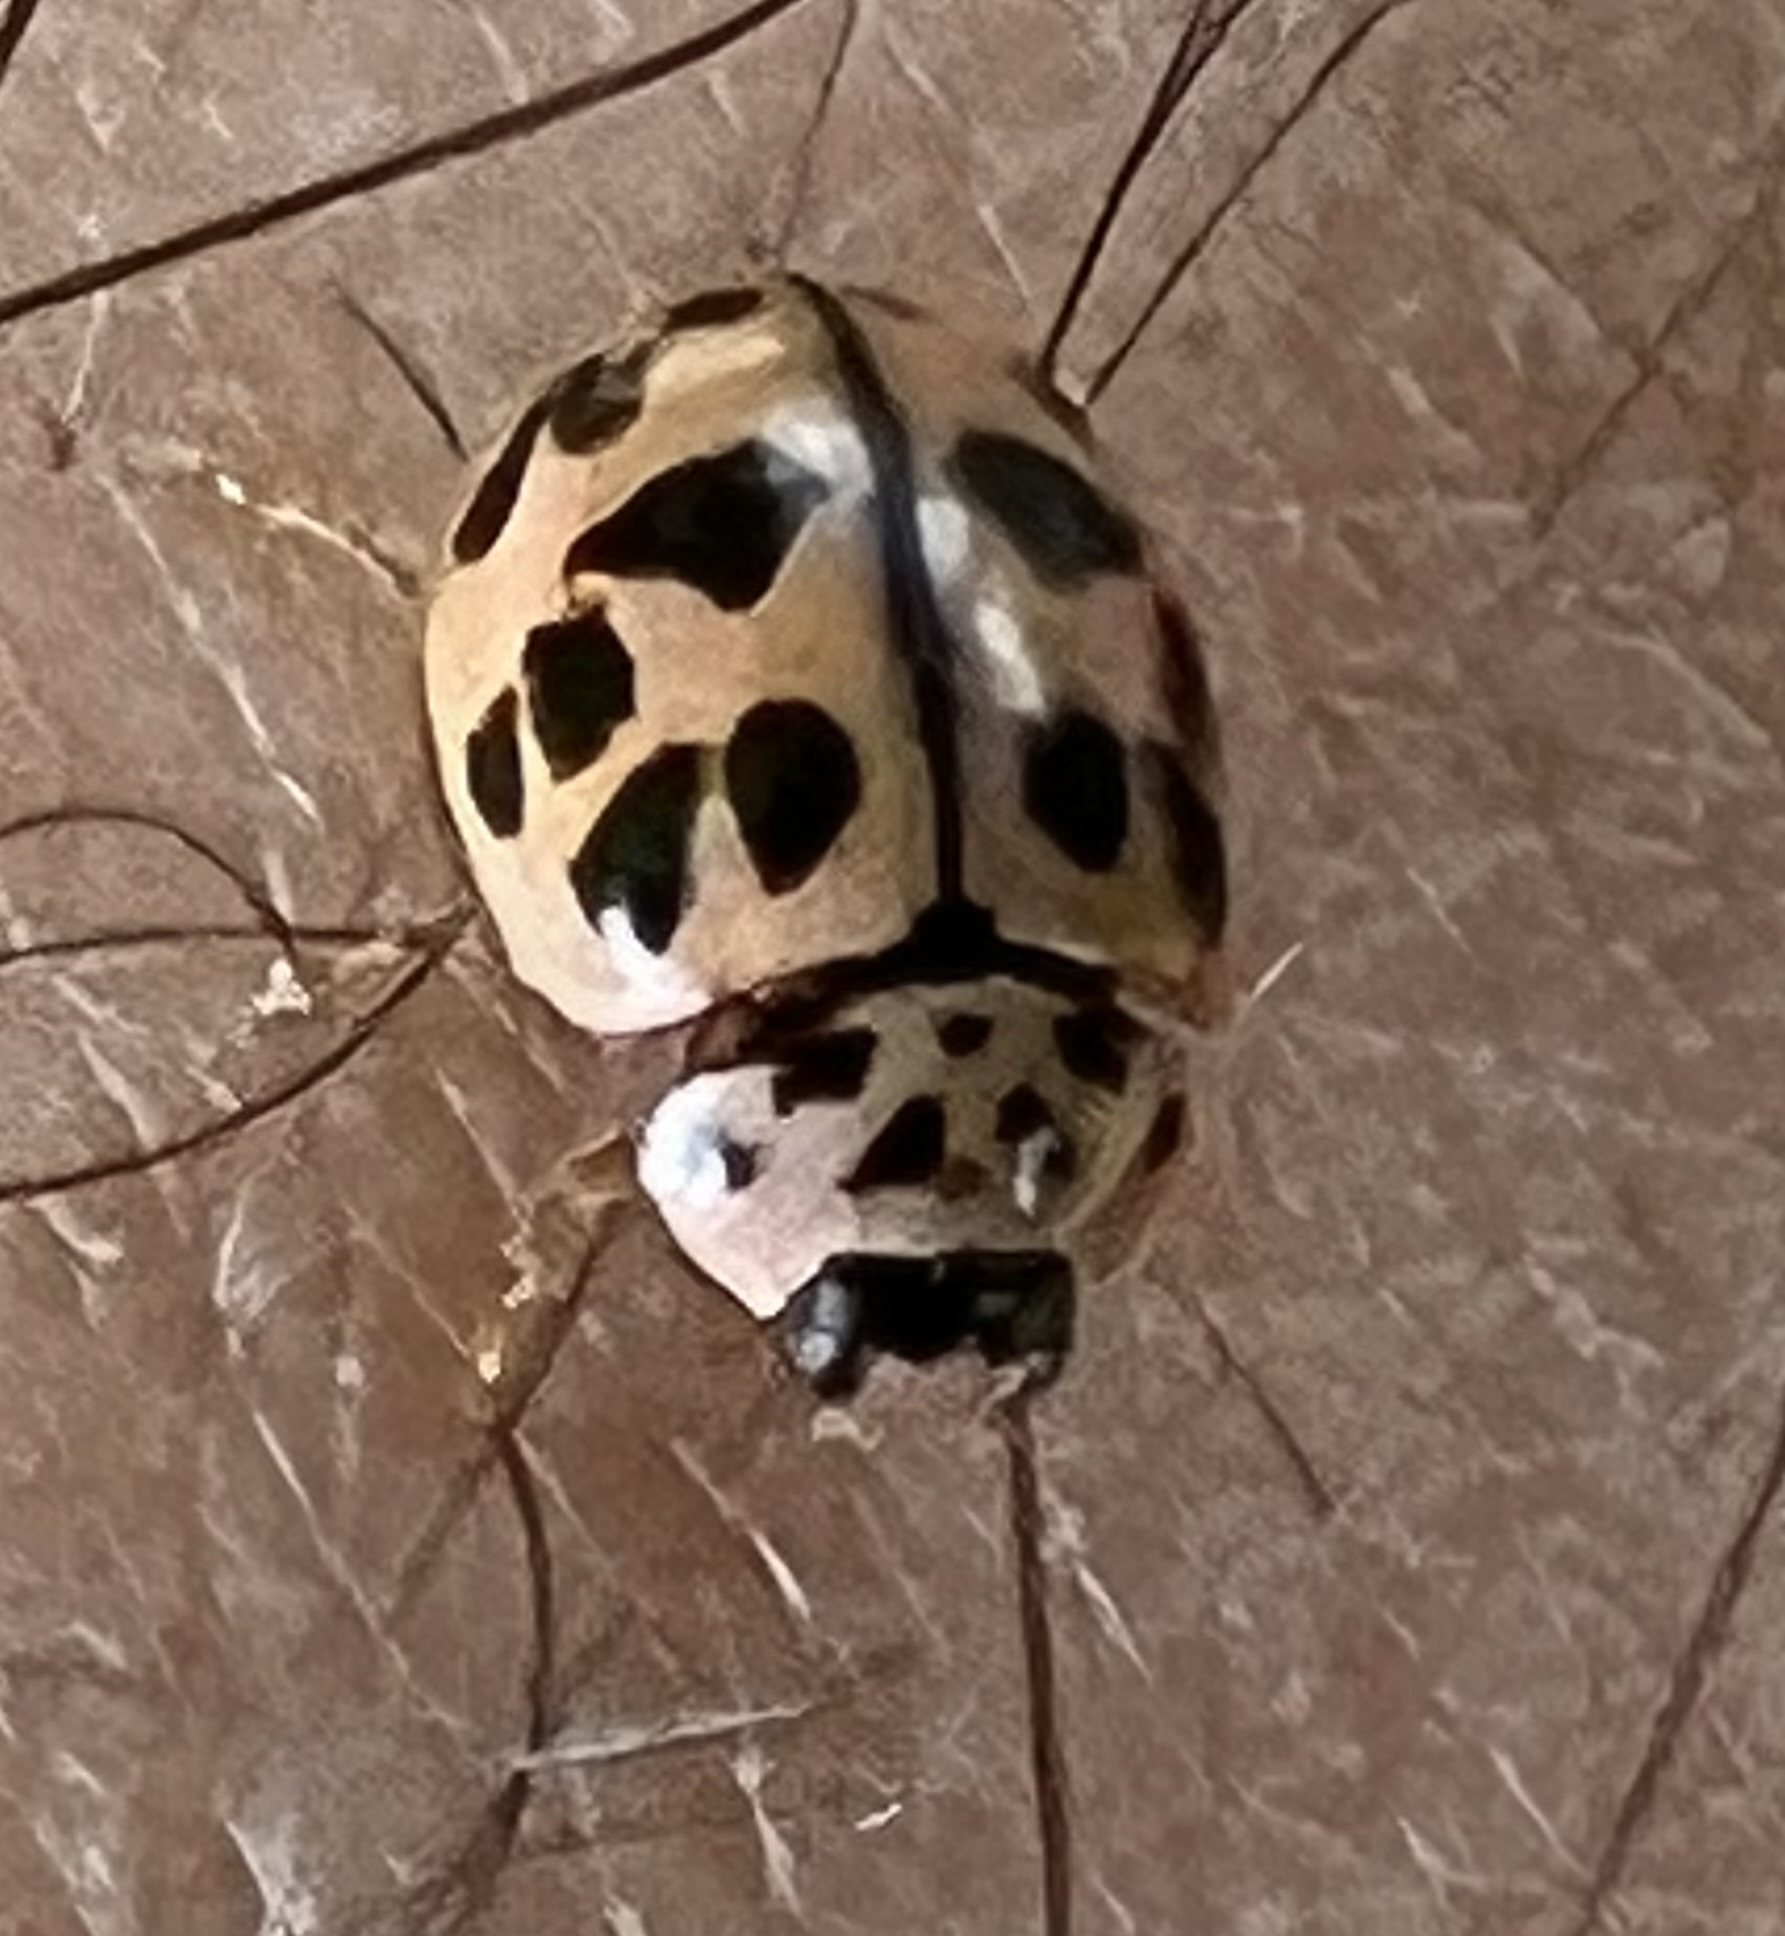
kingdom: Animalia
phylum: Arthropoda
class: Insecta
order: Coleoptera
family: Coccinellidae
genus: Oenopia
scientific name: Oenopia conglobata
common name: Ladybird beetle
